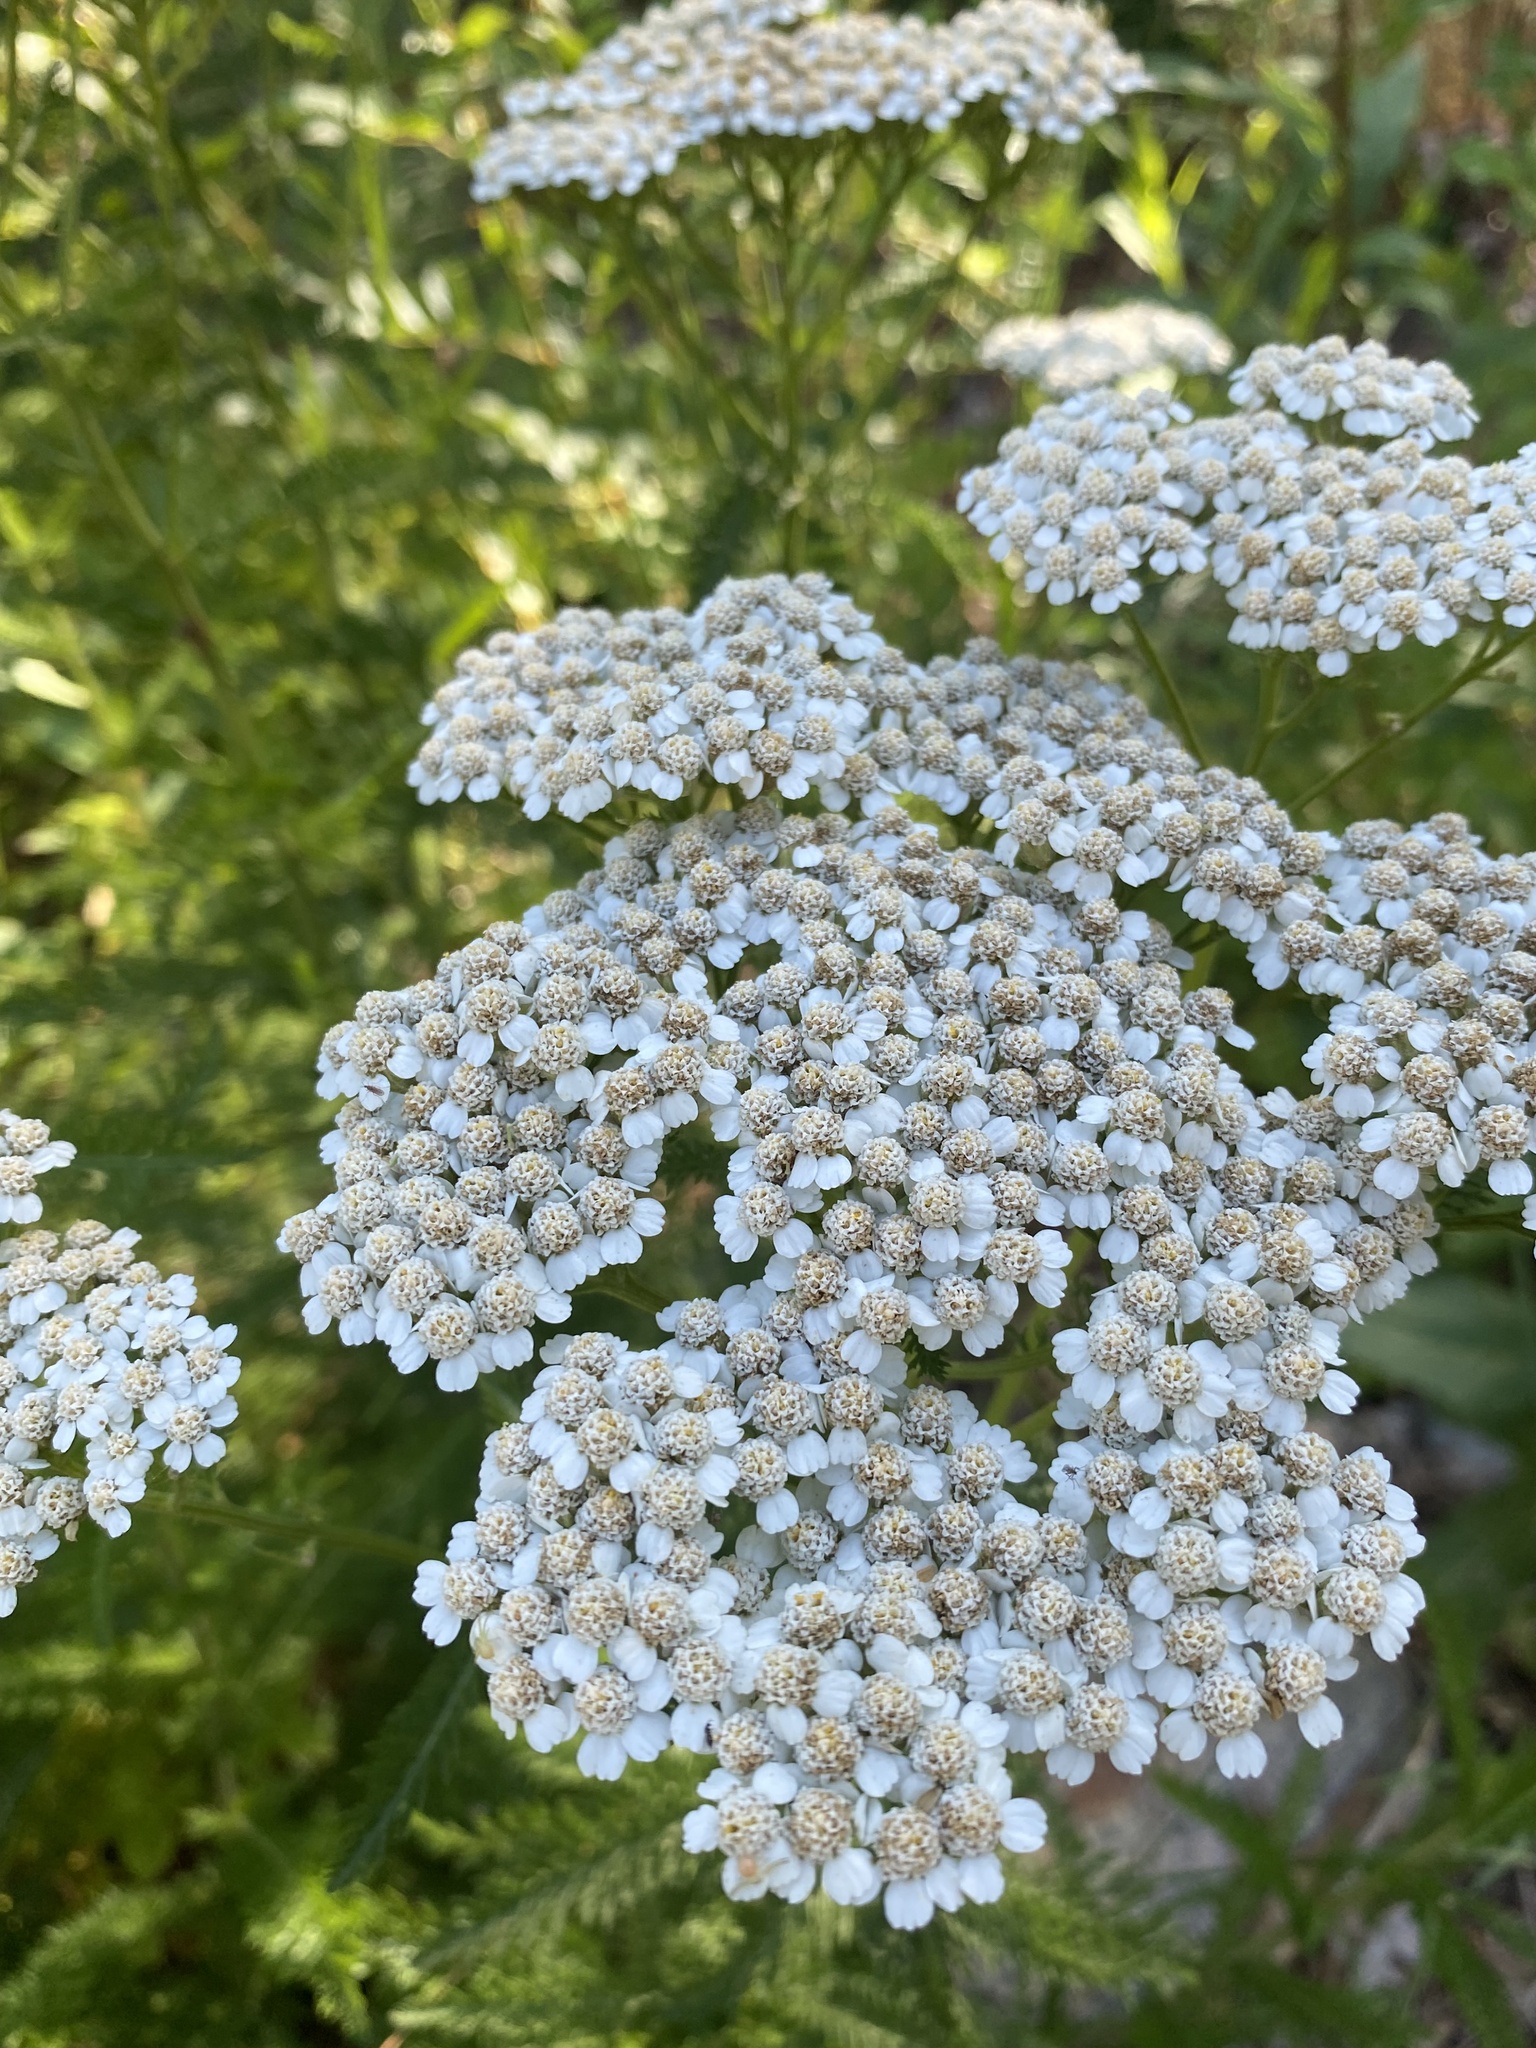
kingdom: Plantae
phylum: Tracheophyta
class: Magnoliopsida
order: Asterales
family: Asteraceae
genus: Achillea
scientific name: Achillea millefolium
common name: Yarrow
